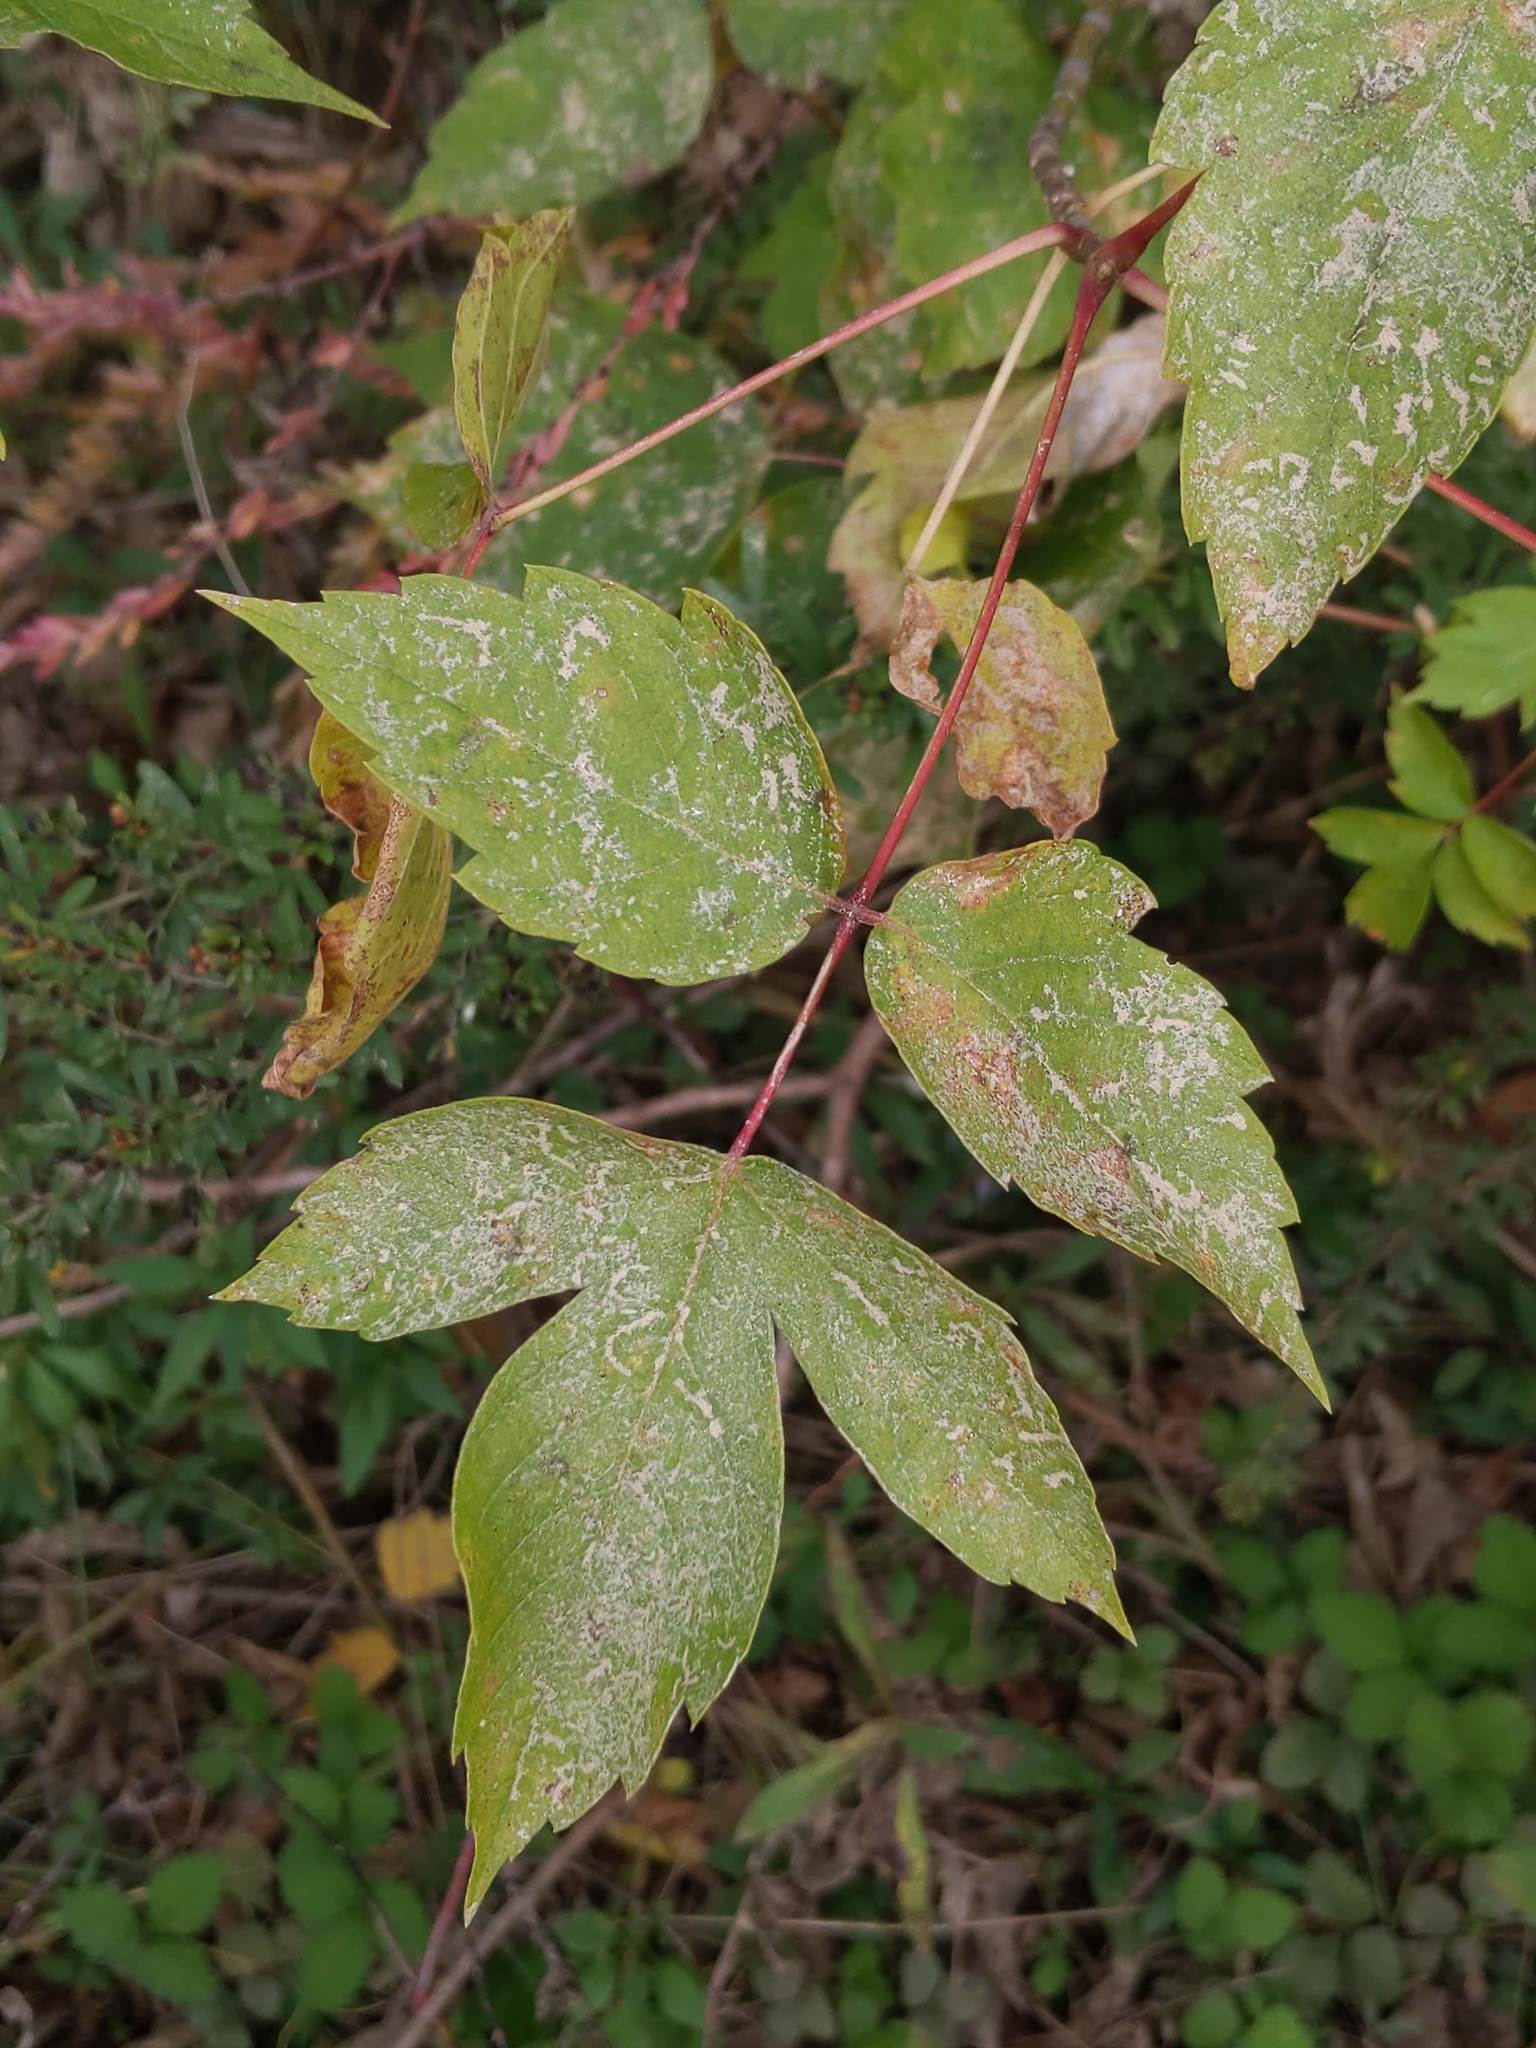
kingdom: Plantae
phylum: Tracheophyta
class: Magnoliopsida
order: Sapindales
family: Sapindaceae
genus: Acer
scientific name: Acer negundo
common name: Ashleaf maple
